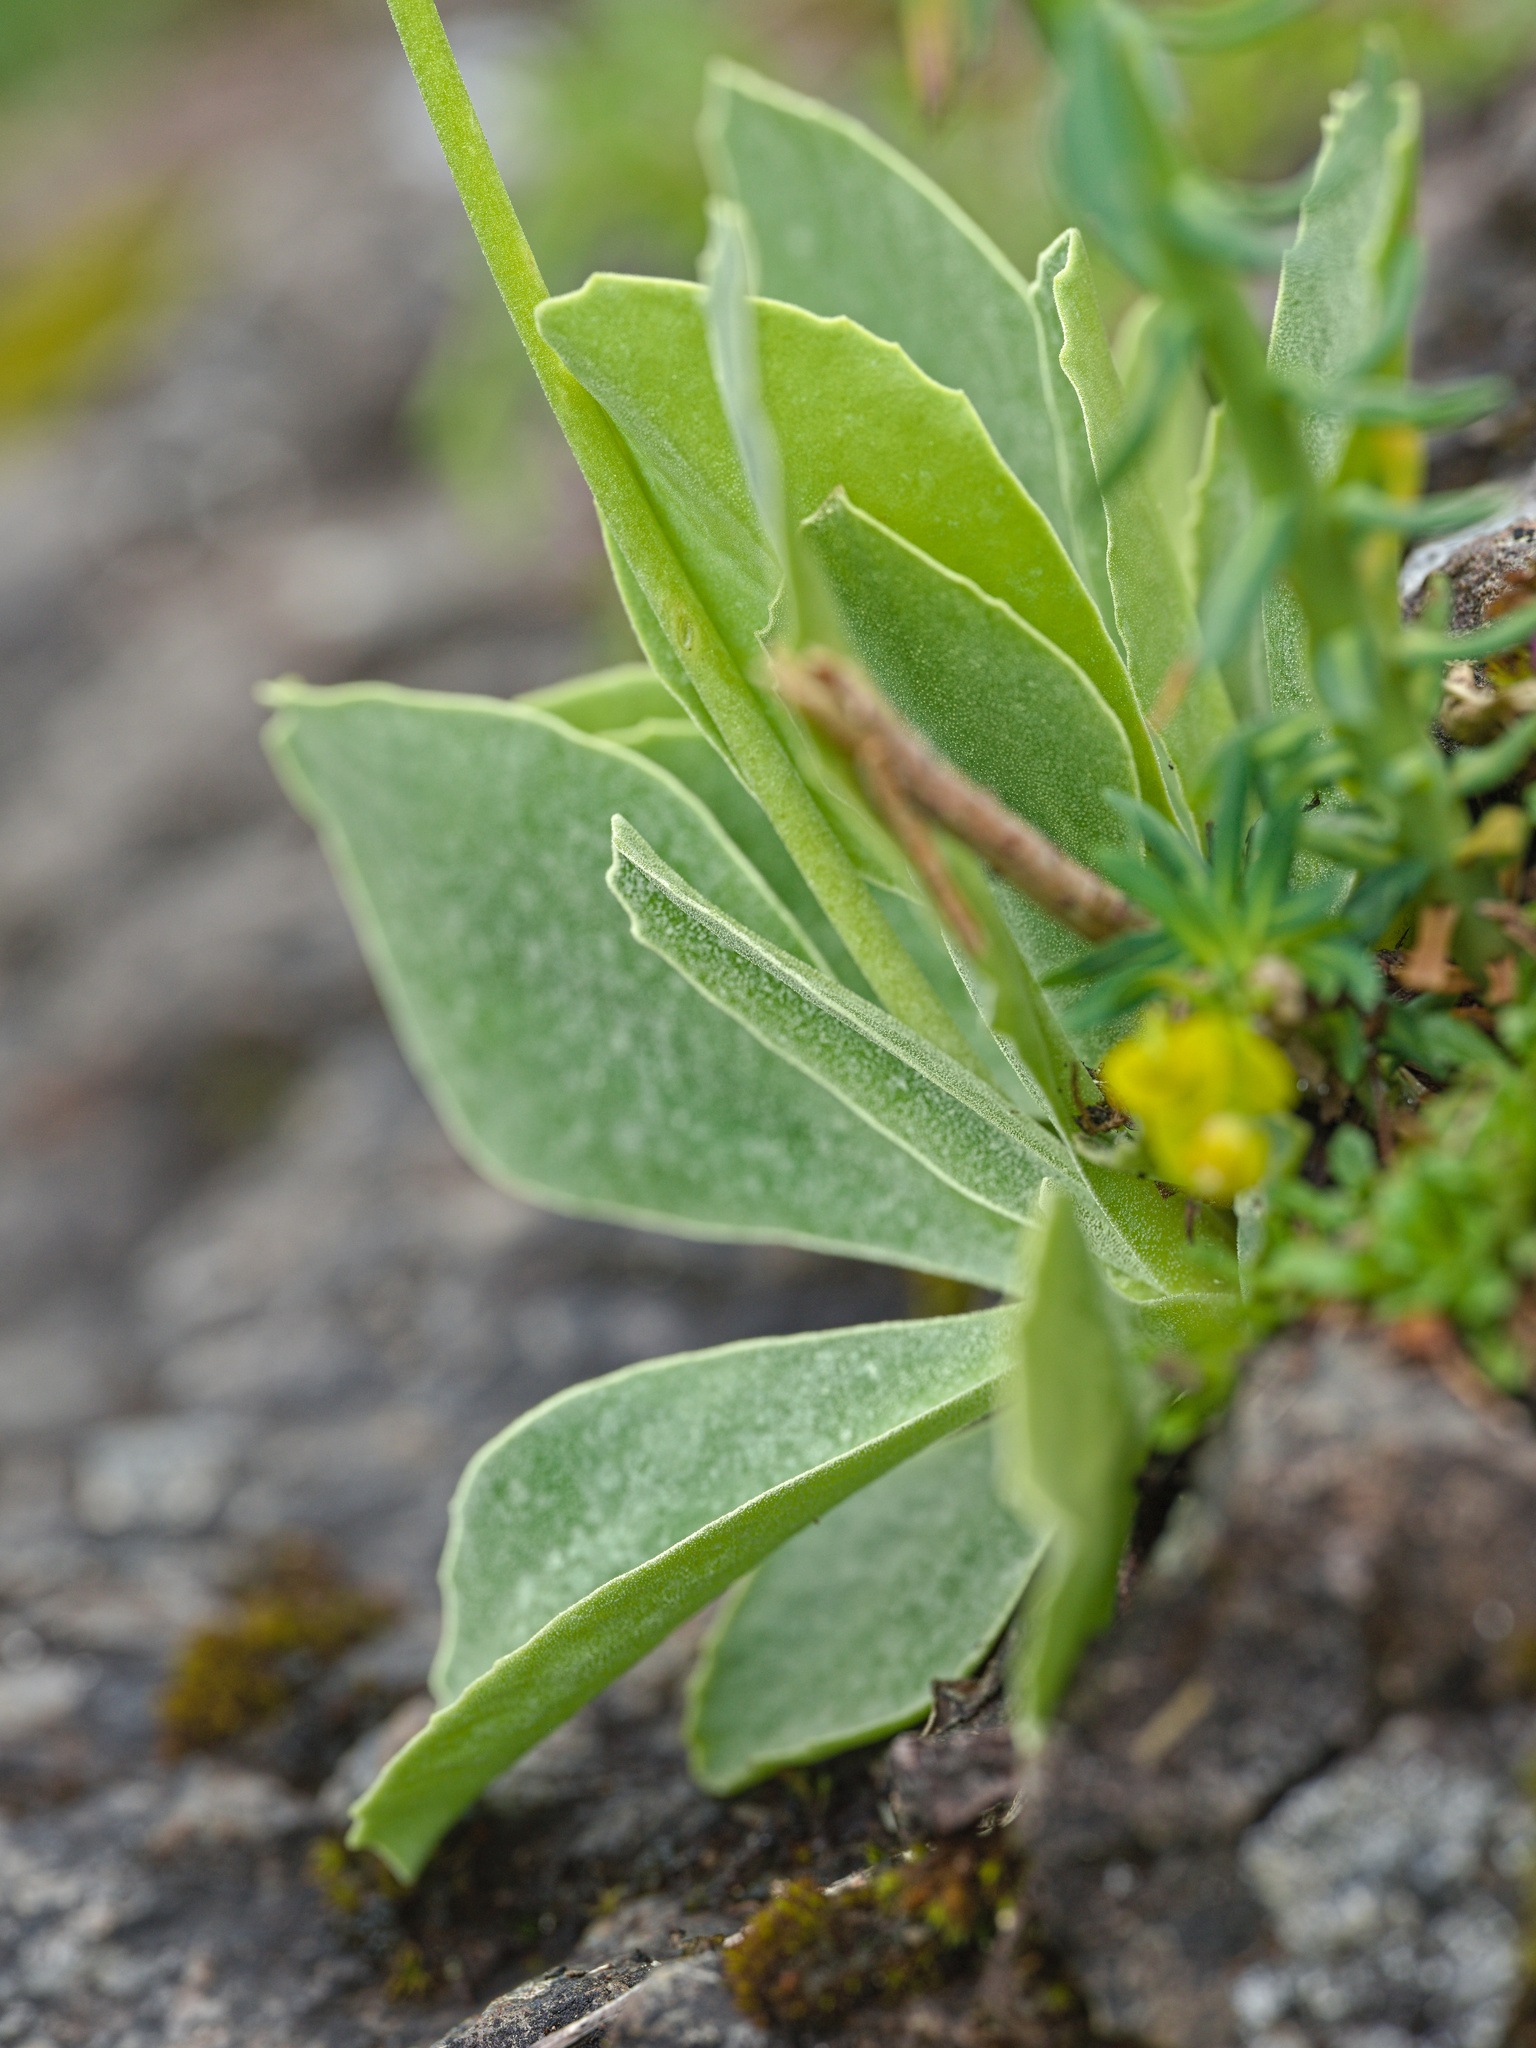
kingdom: Plantae
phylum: Tracheophyta
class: Magnoliopsida
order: Ericales
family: Primulaceae
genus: Primula
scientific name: Primula auricula
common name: Auricula
